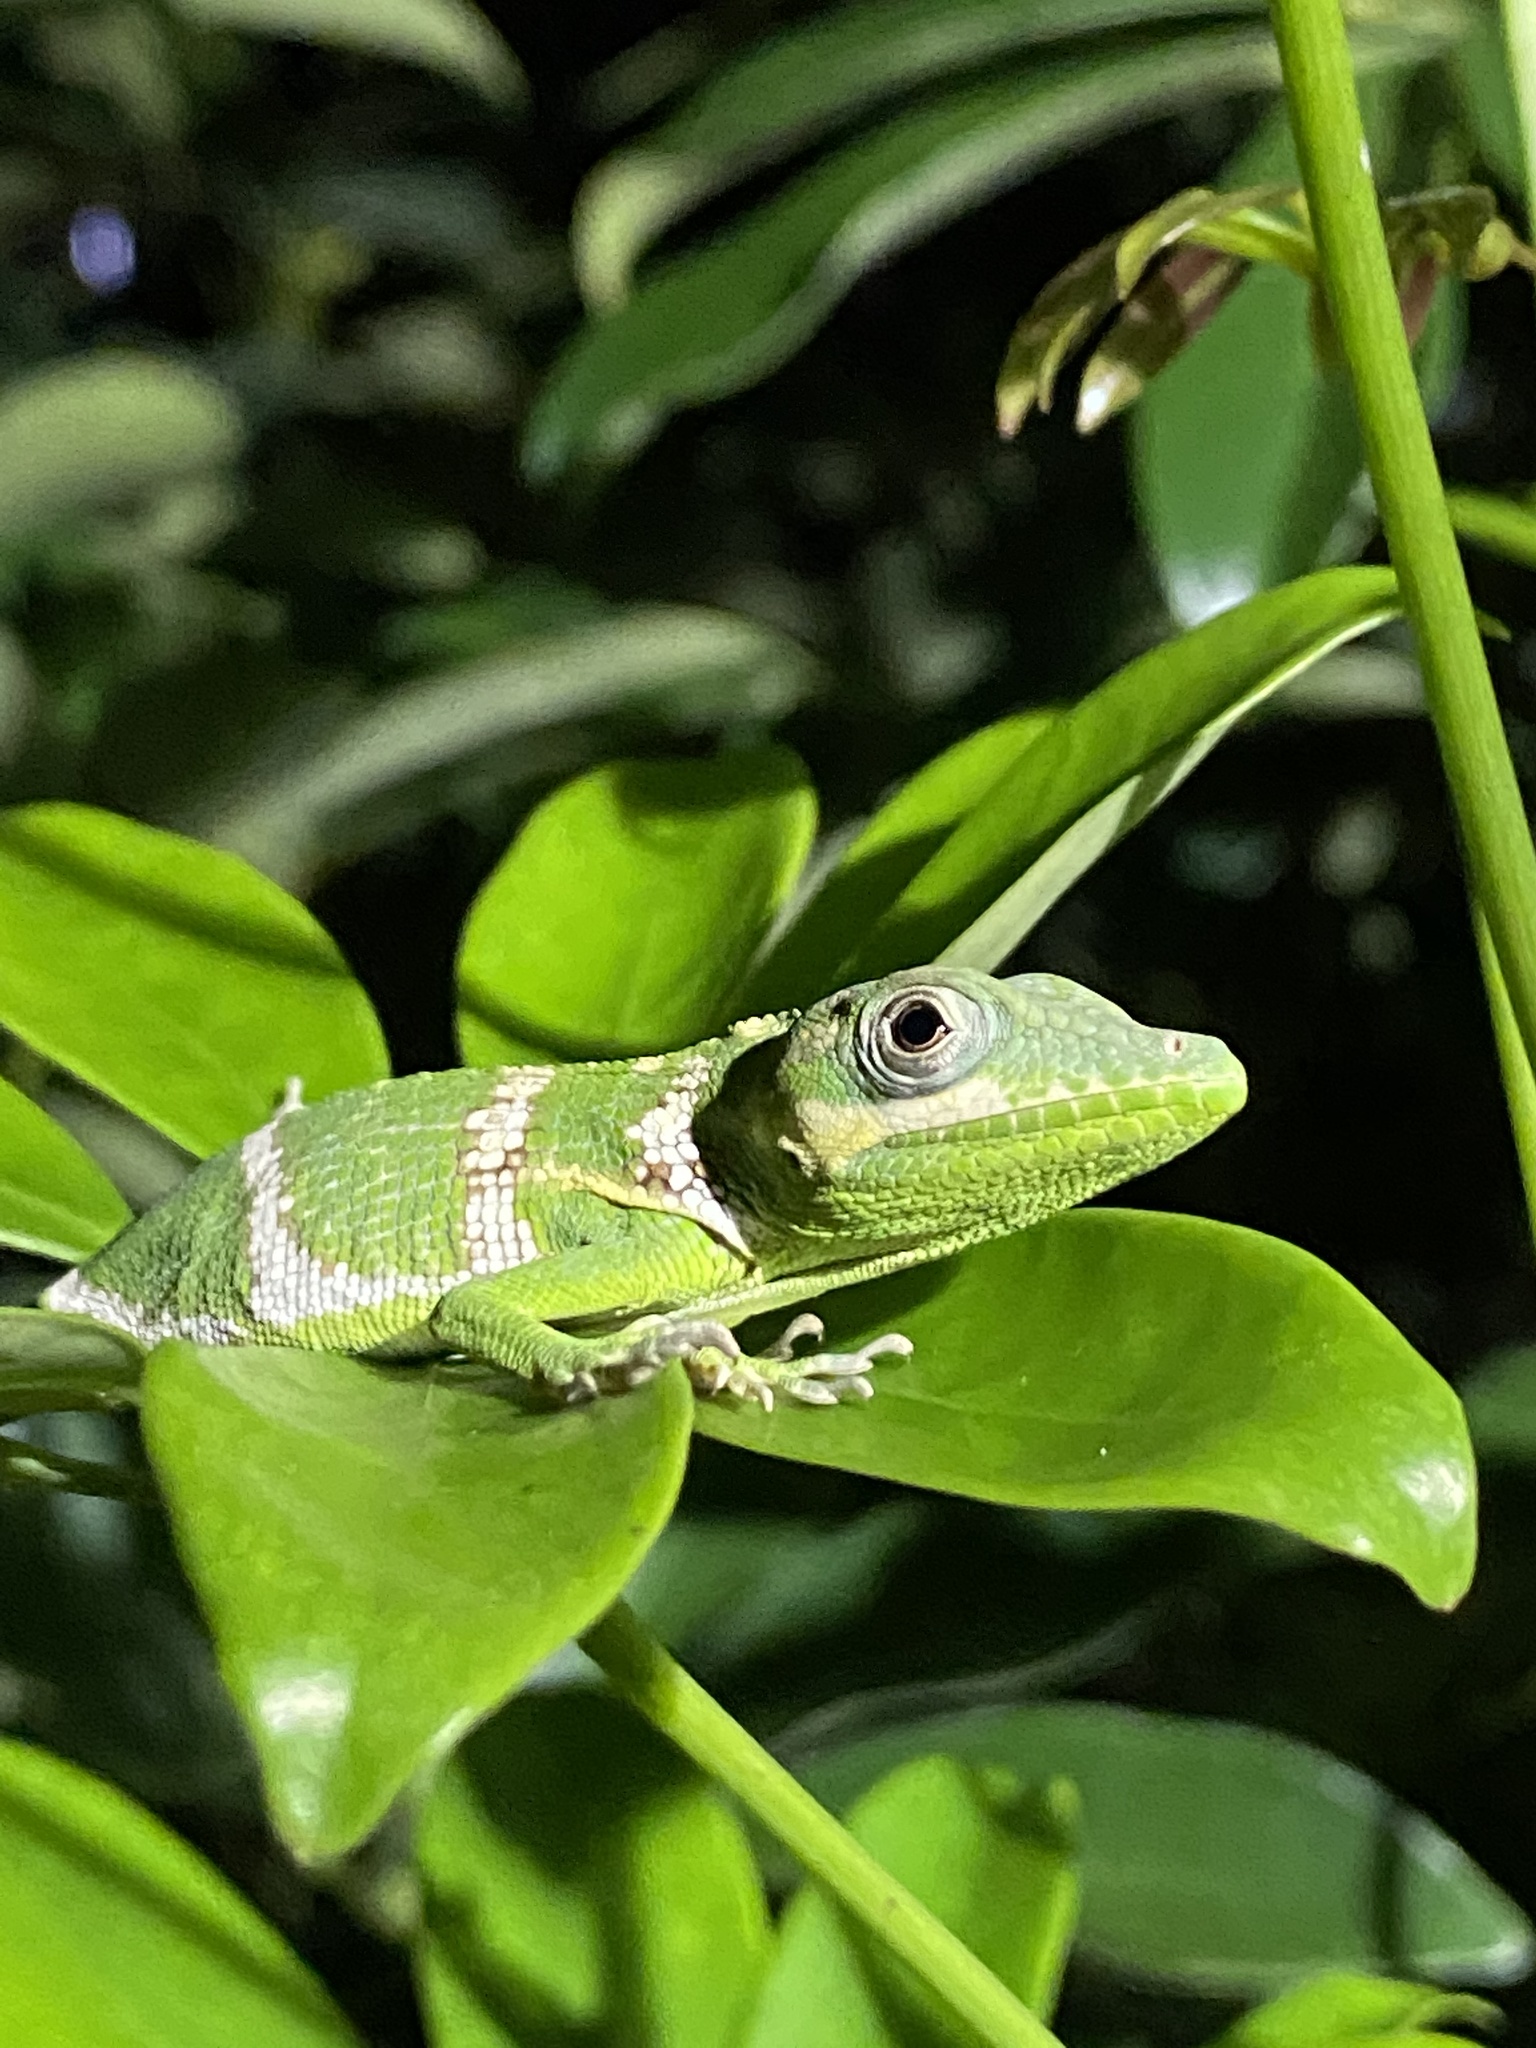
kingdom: Animalia
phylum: Chordata
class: Squamata
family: Dactyloidae
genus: Anolis
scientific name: Anolis equestris
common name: Knight anole
